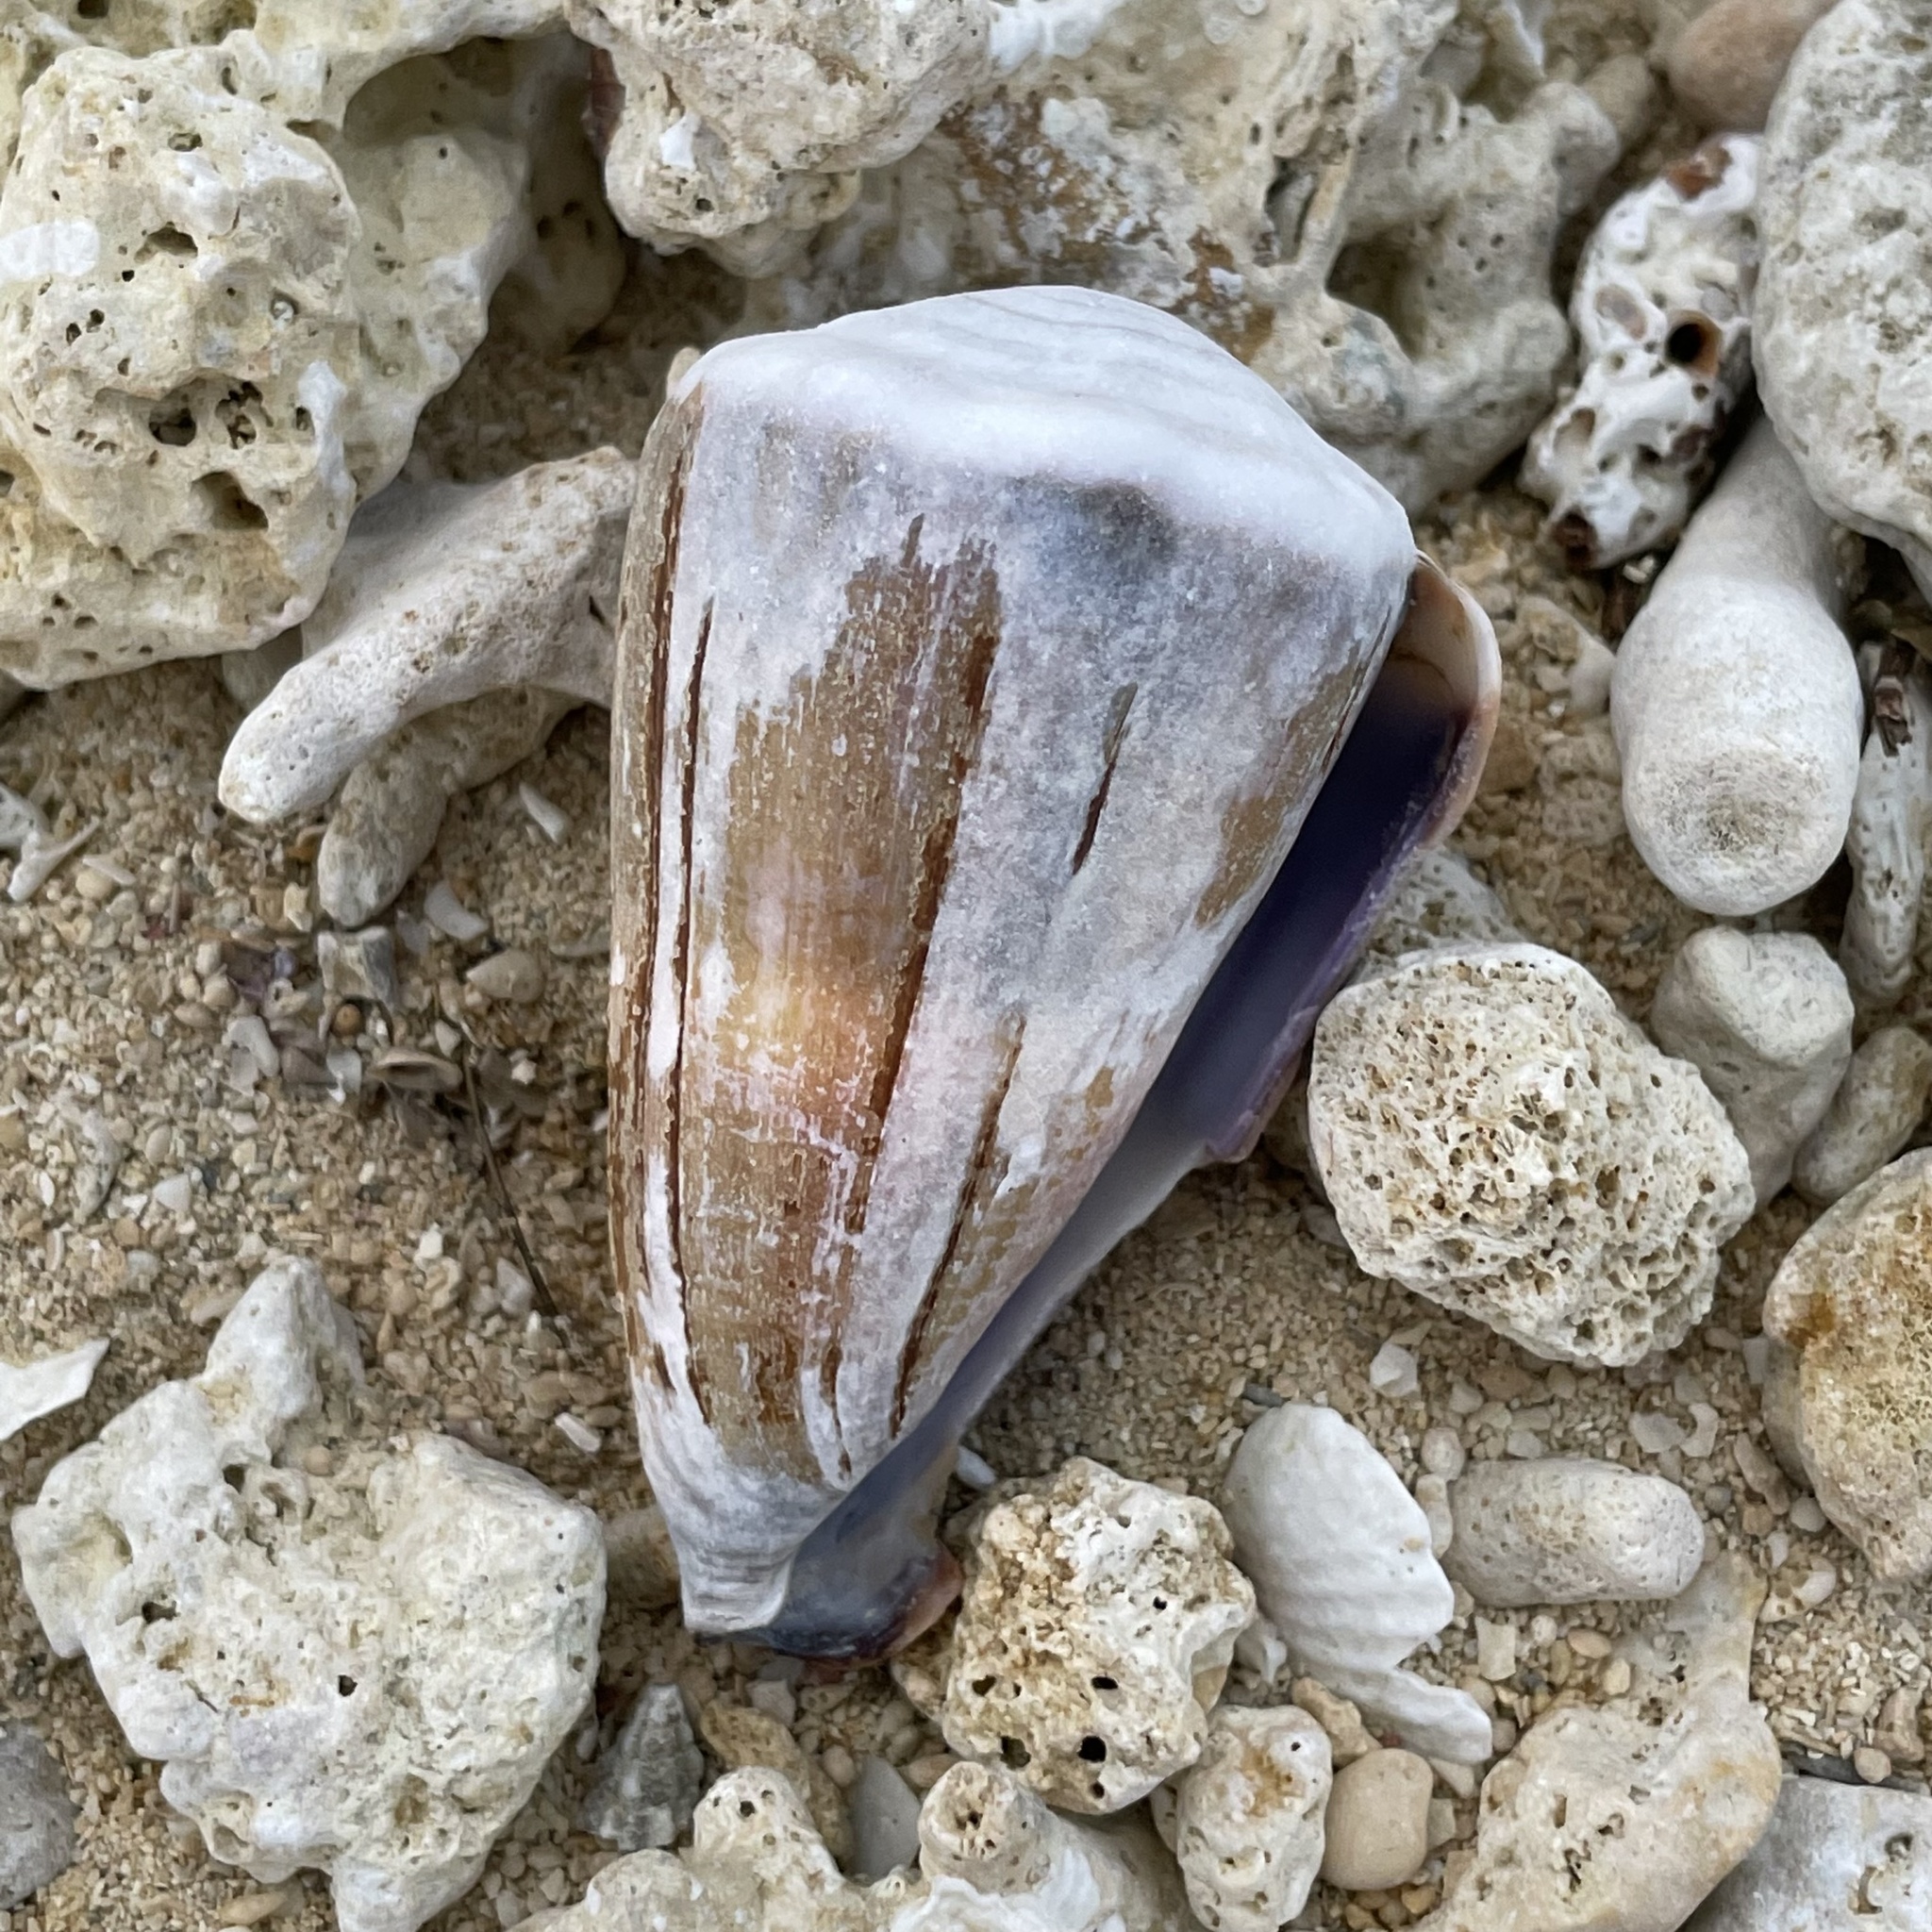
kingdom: Animalia
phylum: Mollusca
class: Gastropoda
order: Neogastropoda
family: Conidae
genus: Conus
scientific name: Conus lividus
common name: Livid cone
